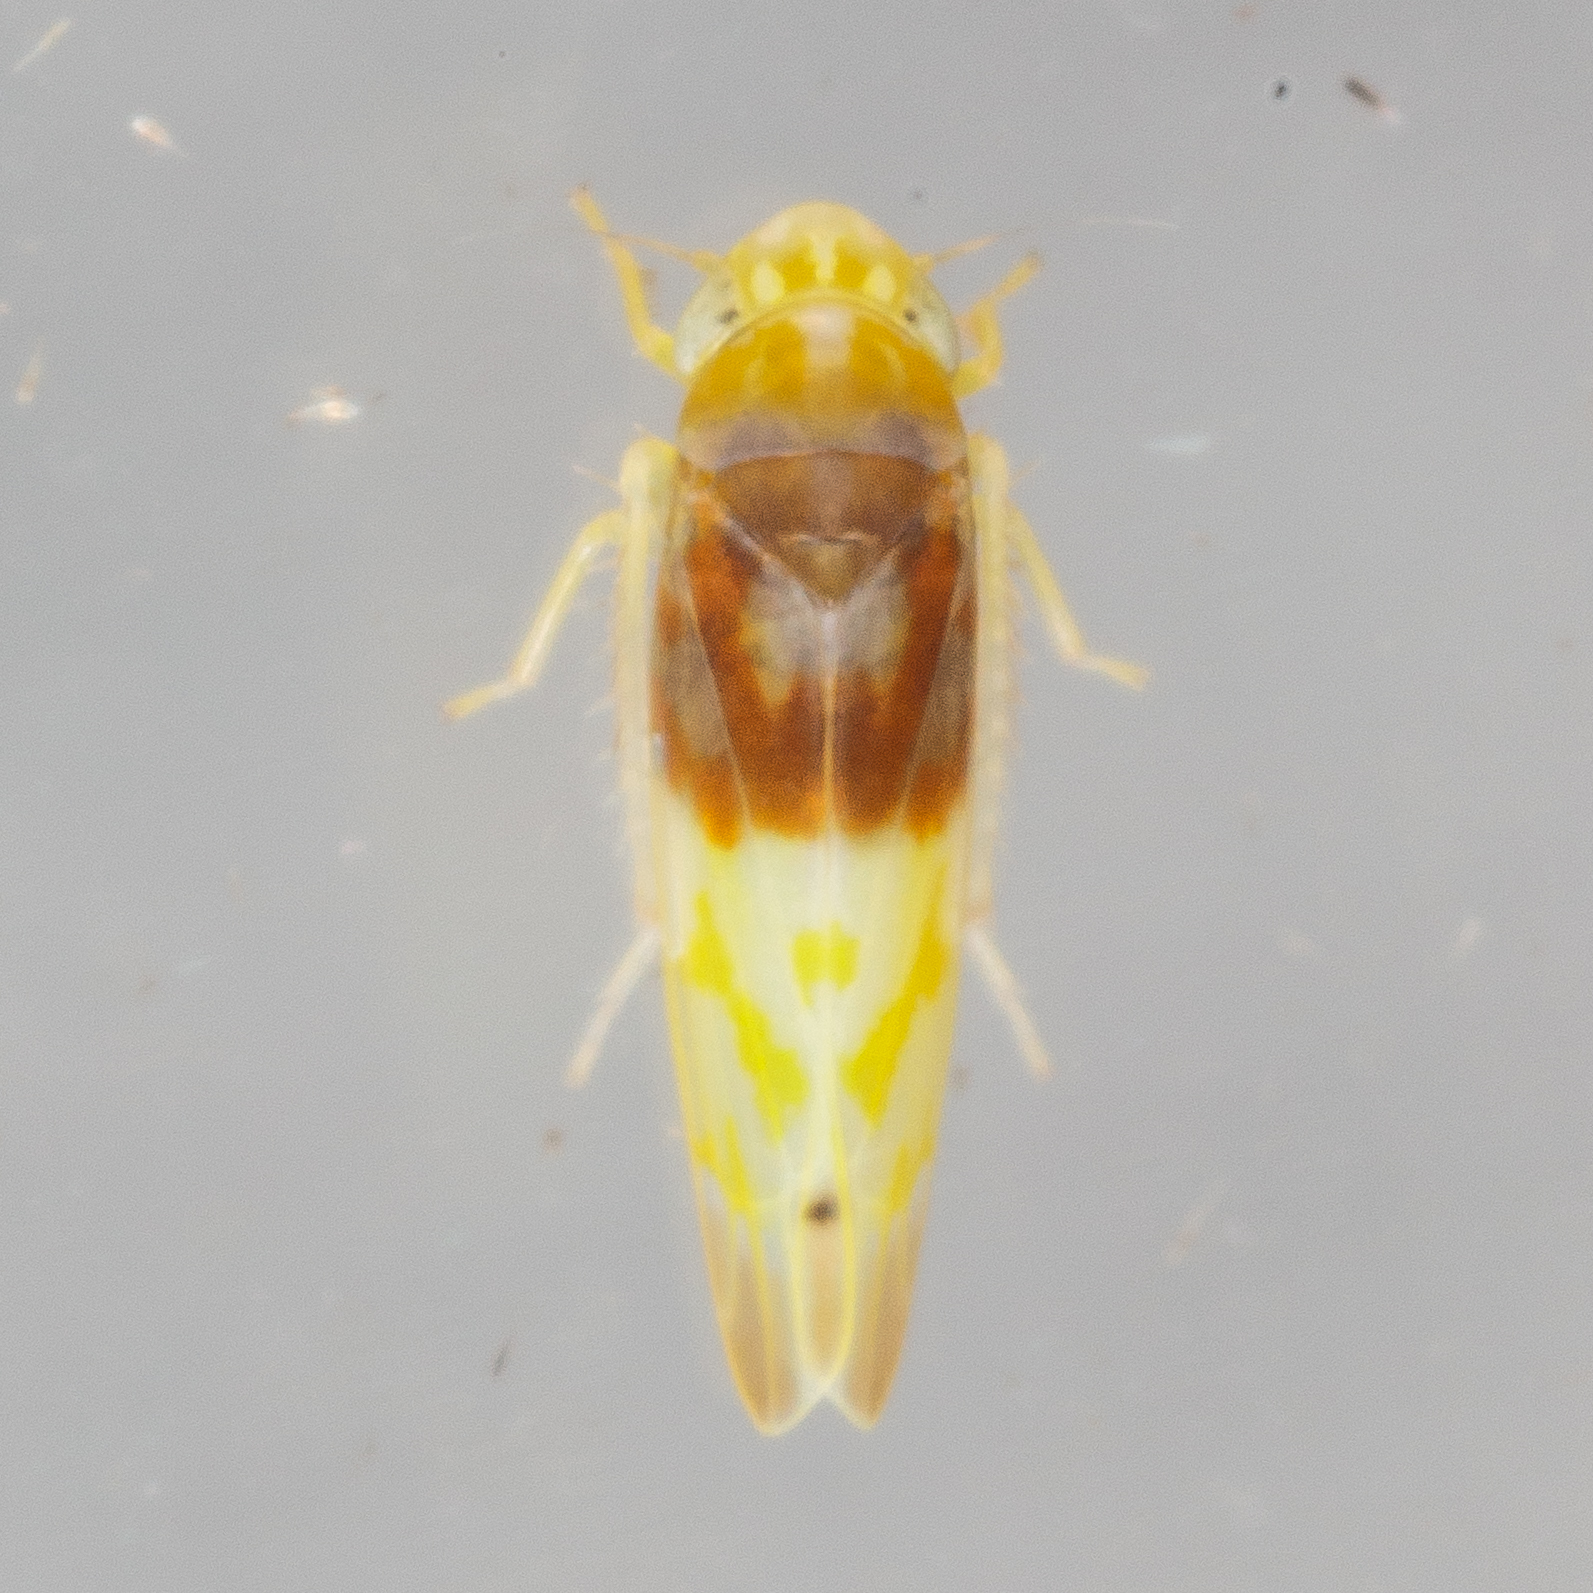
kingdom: Animalia
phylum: Arthropoda
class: Insecta
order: Hemiptera
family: Cicadellidae
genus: Eratoneura
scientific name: Eratoneura affinis
